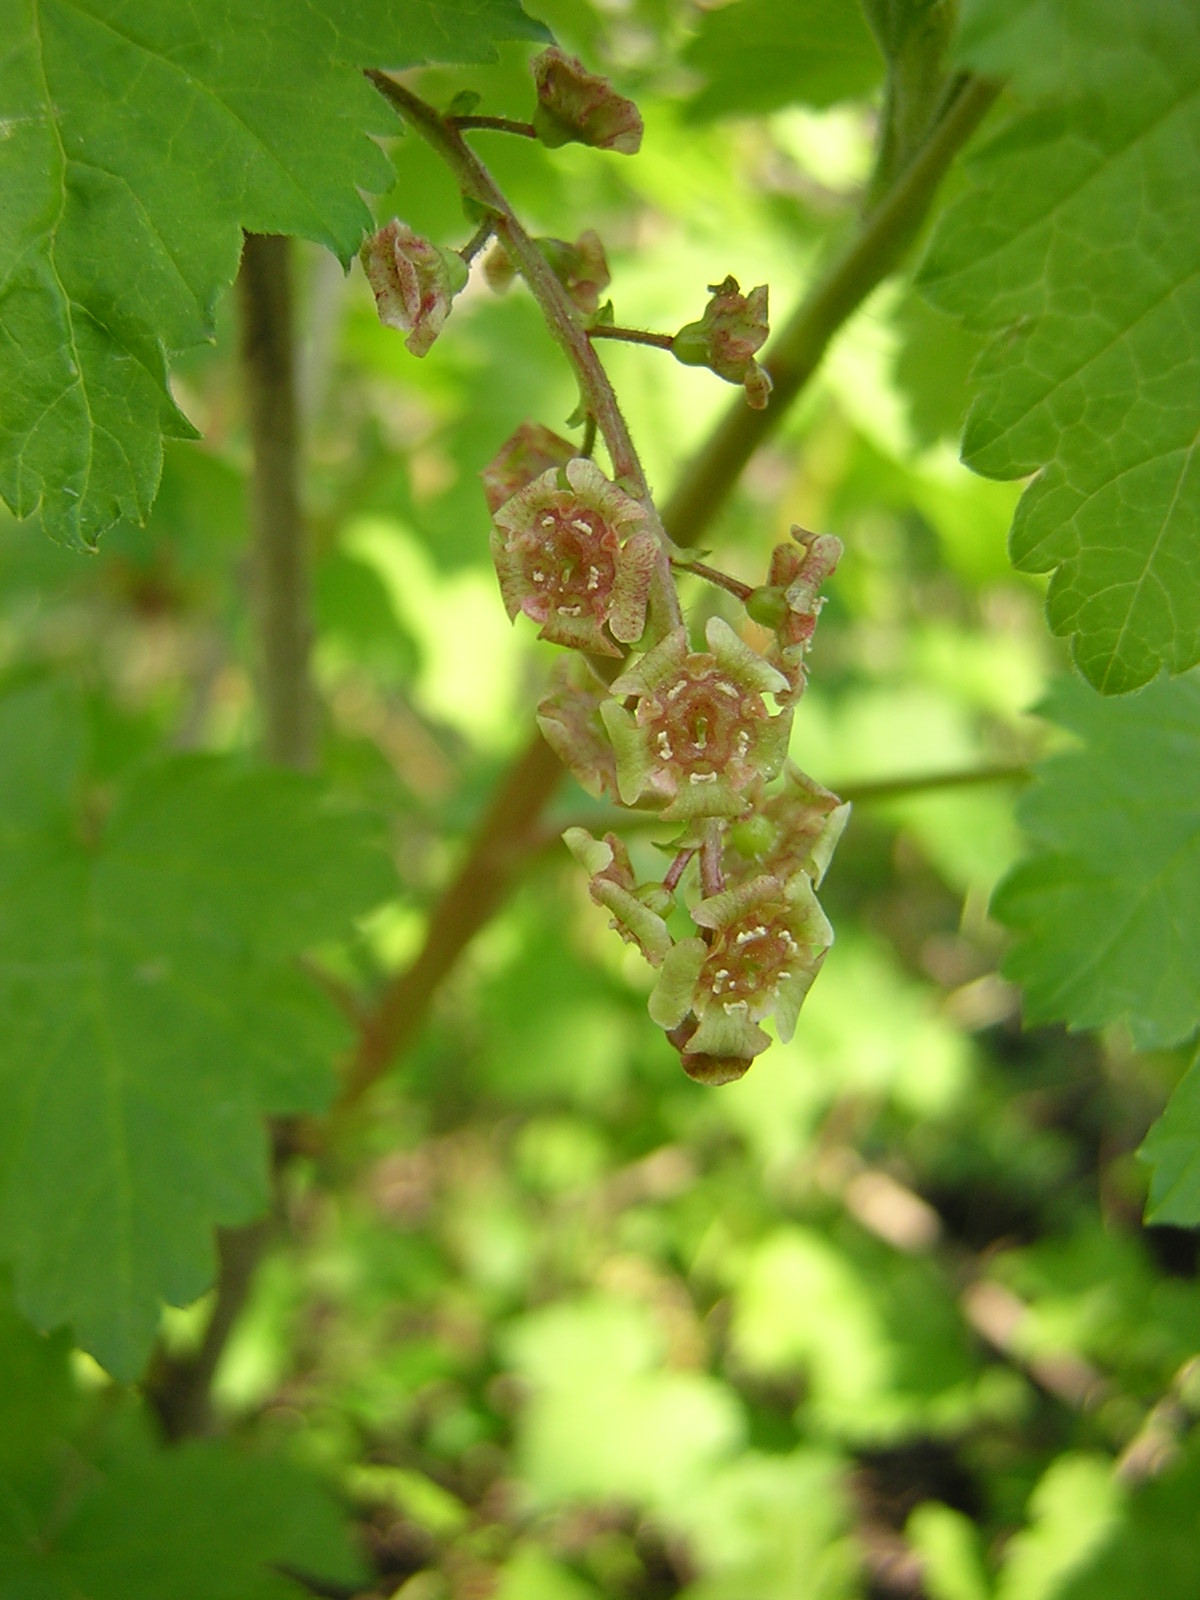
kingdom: Plantae
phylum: Tracheophyta
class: Magnoliopsida
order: Saxifragales
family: Grossulariaceae
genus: Ribes
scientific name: Ribes rubrum
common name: Red currant
